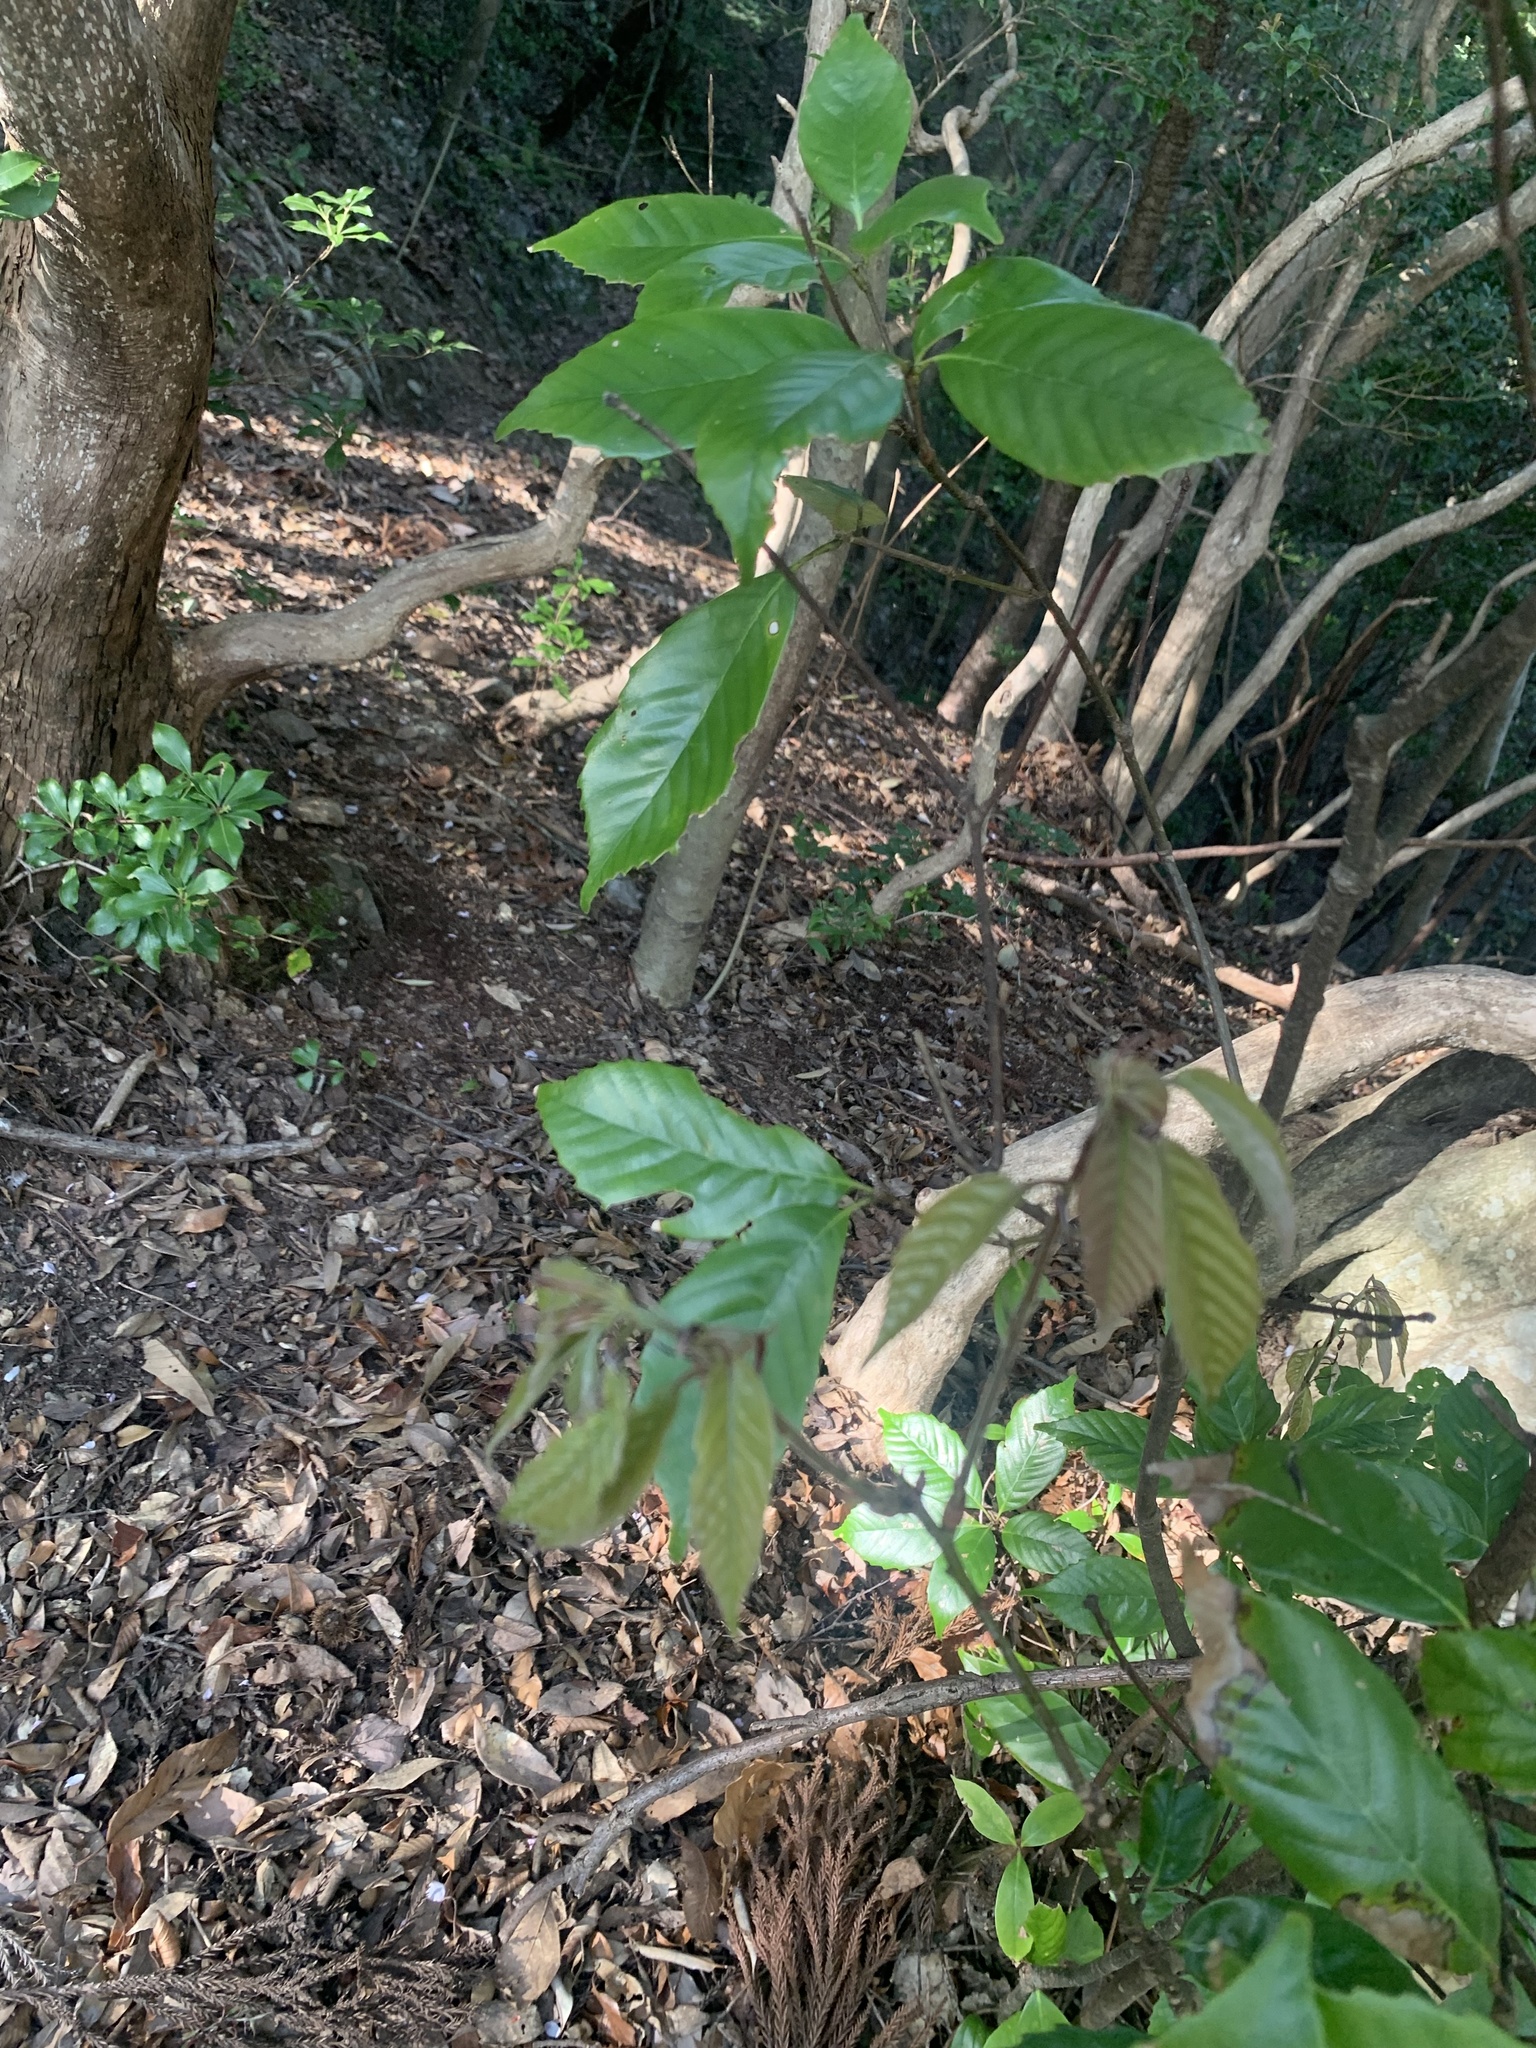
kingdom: Plantae
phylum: Tracheophyta
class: Magnoliopsida
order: Fagales
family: Fagaceae
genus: Quercus
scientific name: Quercus glauca
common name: Ring-cup oak
